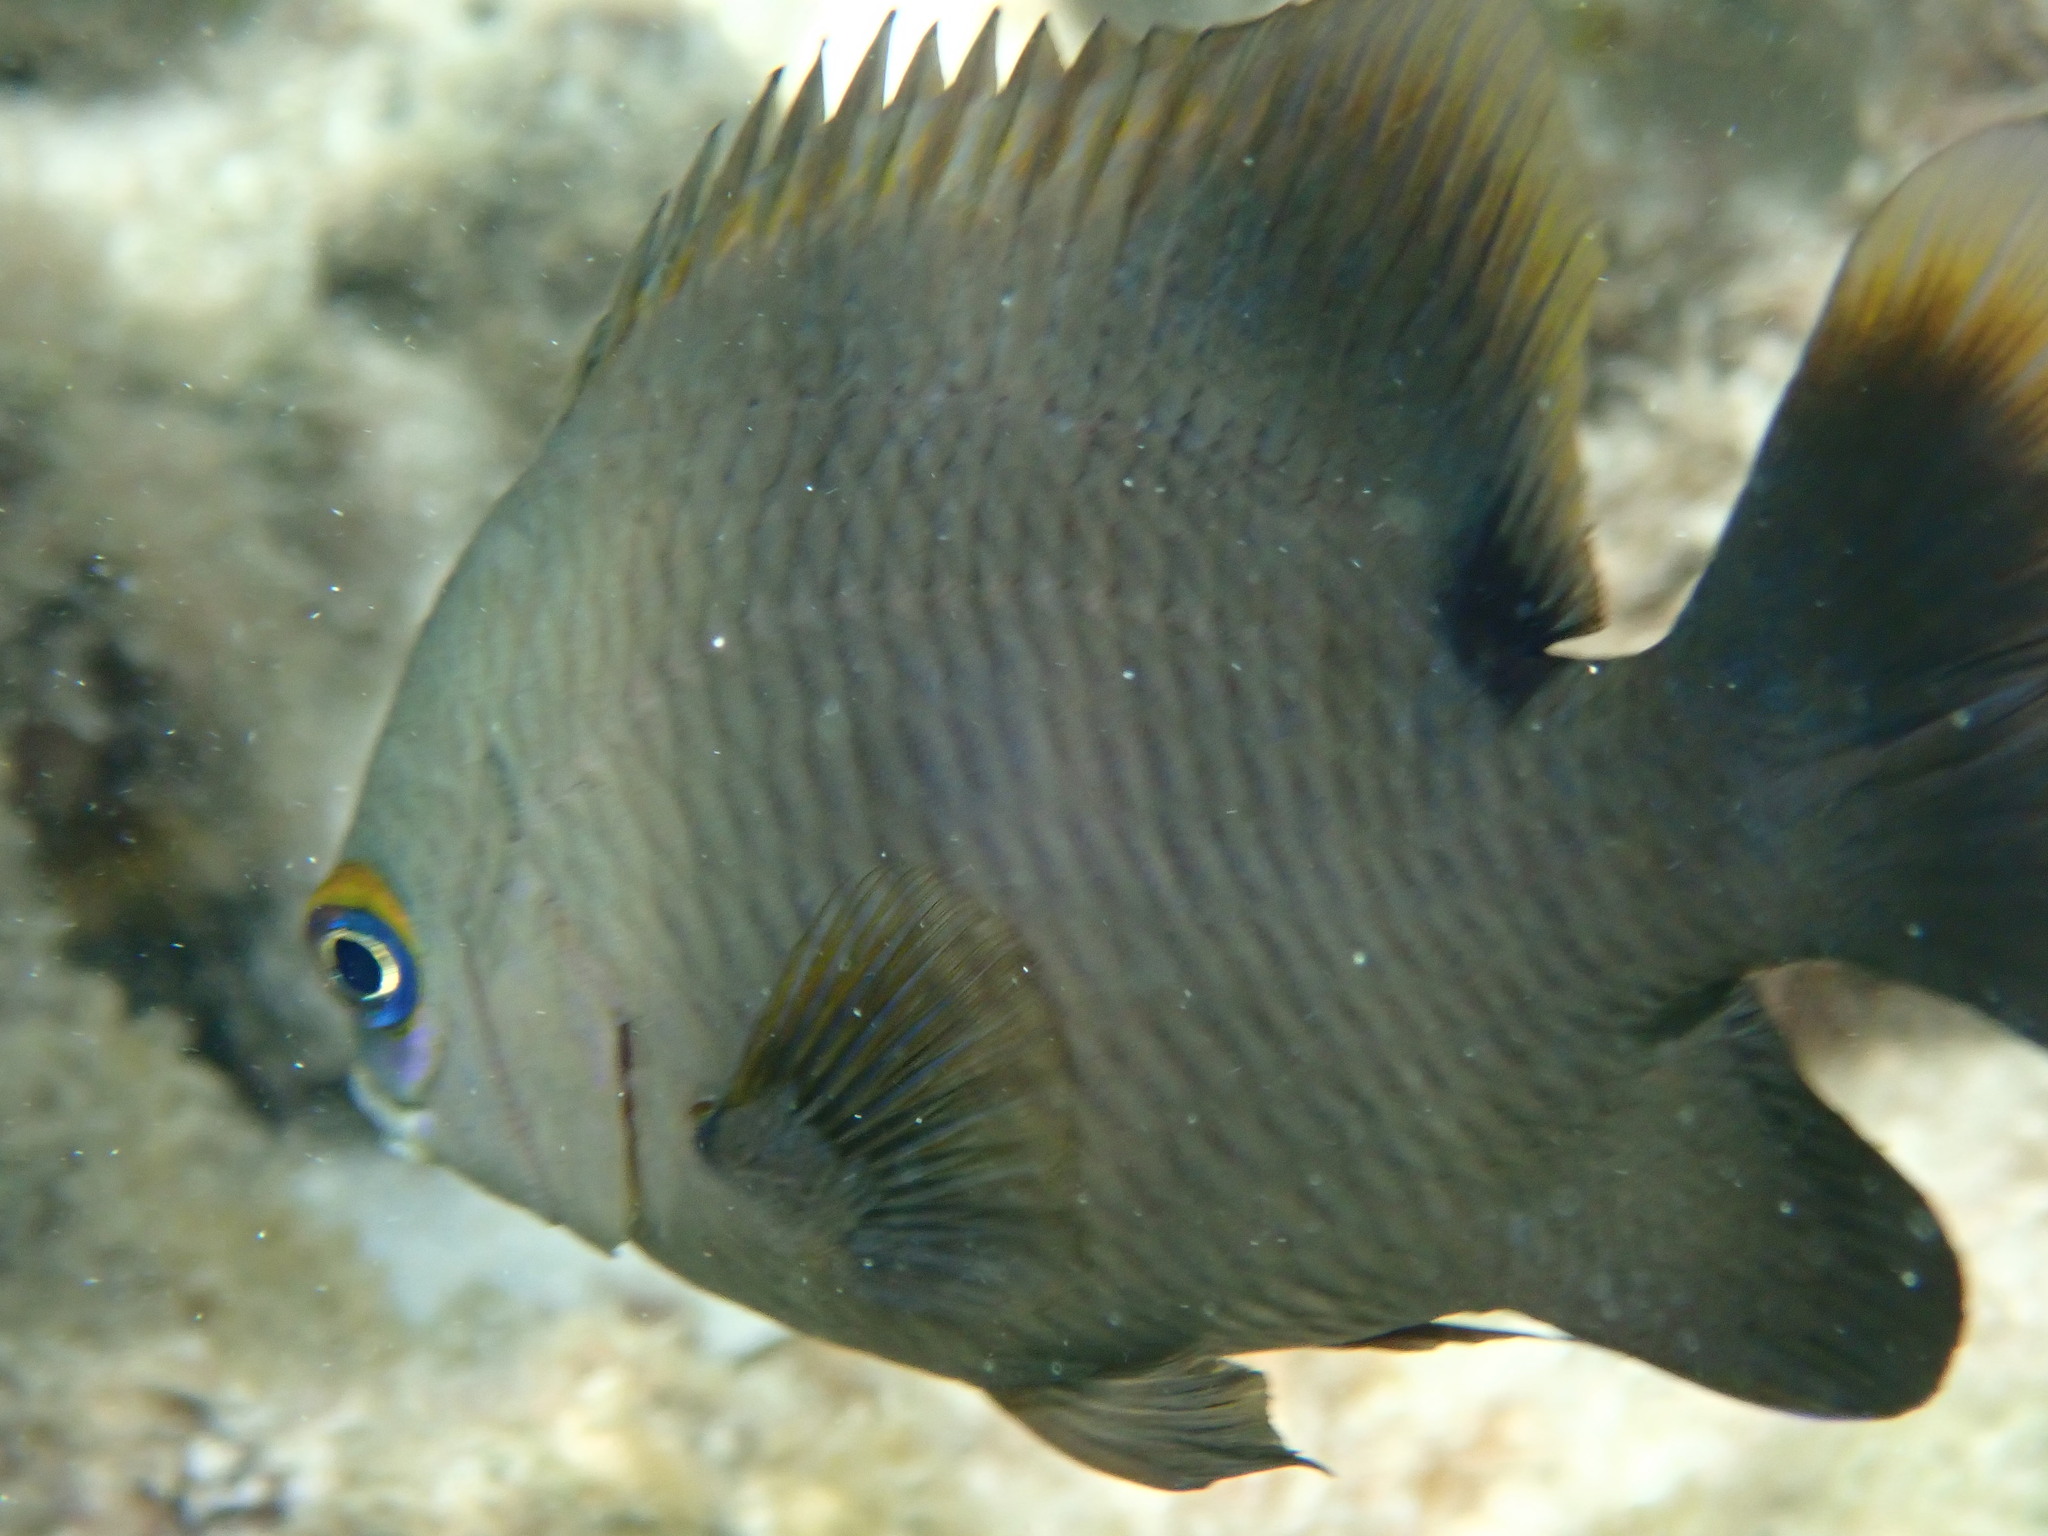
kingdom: Animalia
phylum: Chordata
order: Perciformes
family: Pomacentridae
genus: Stegastes
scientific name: Stegastes nigricans
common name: Dusky gregory
